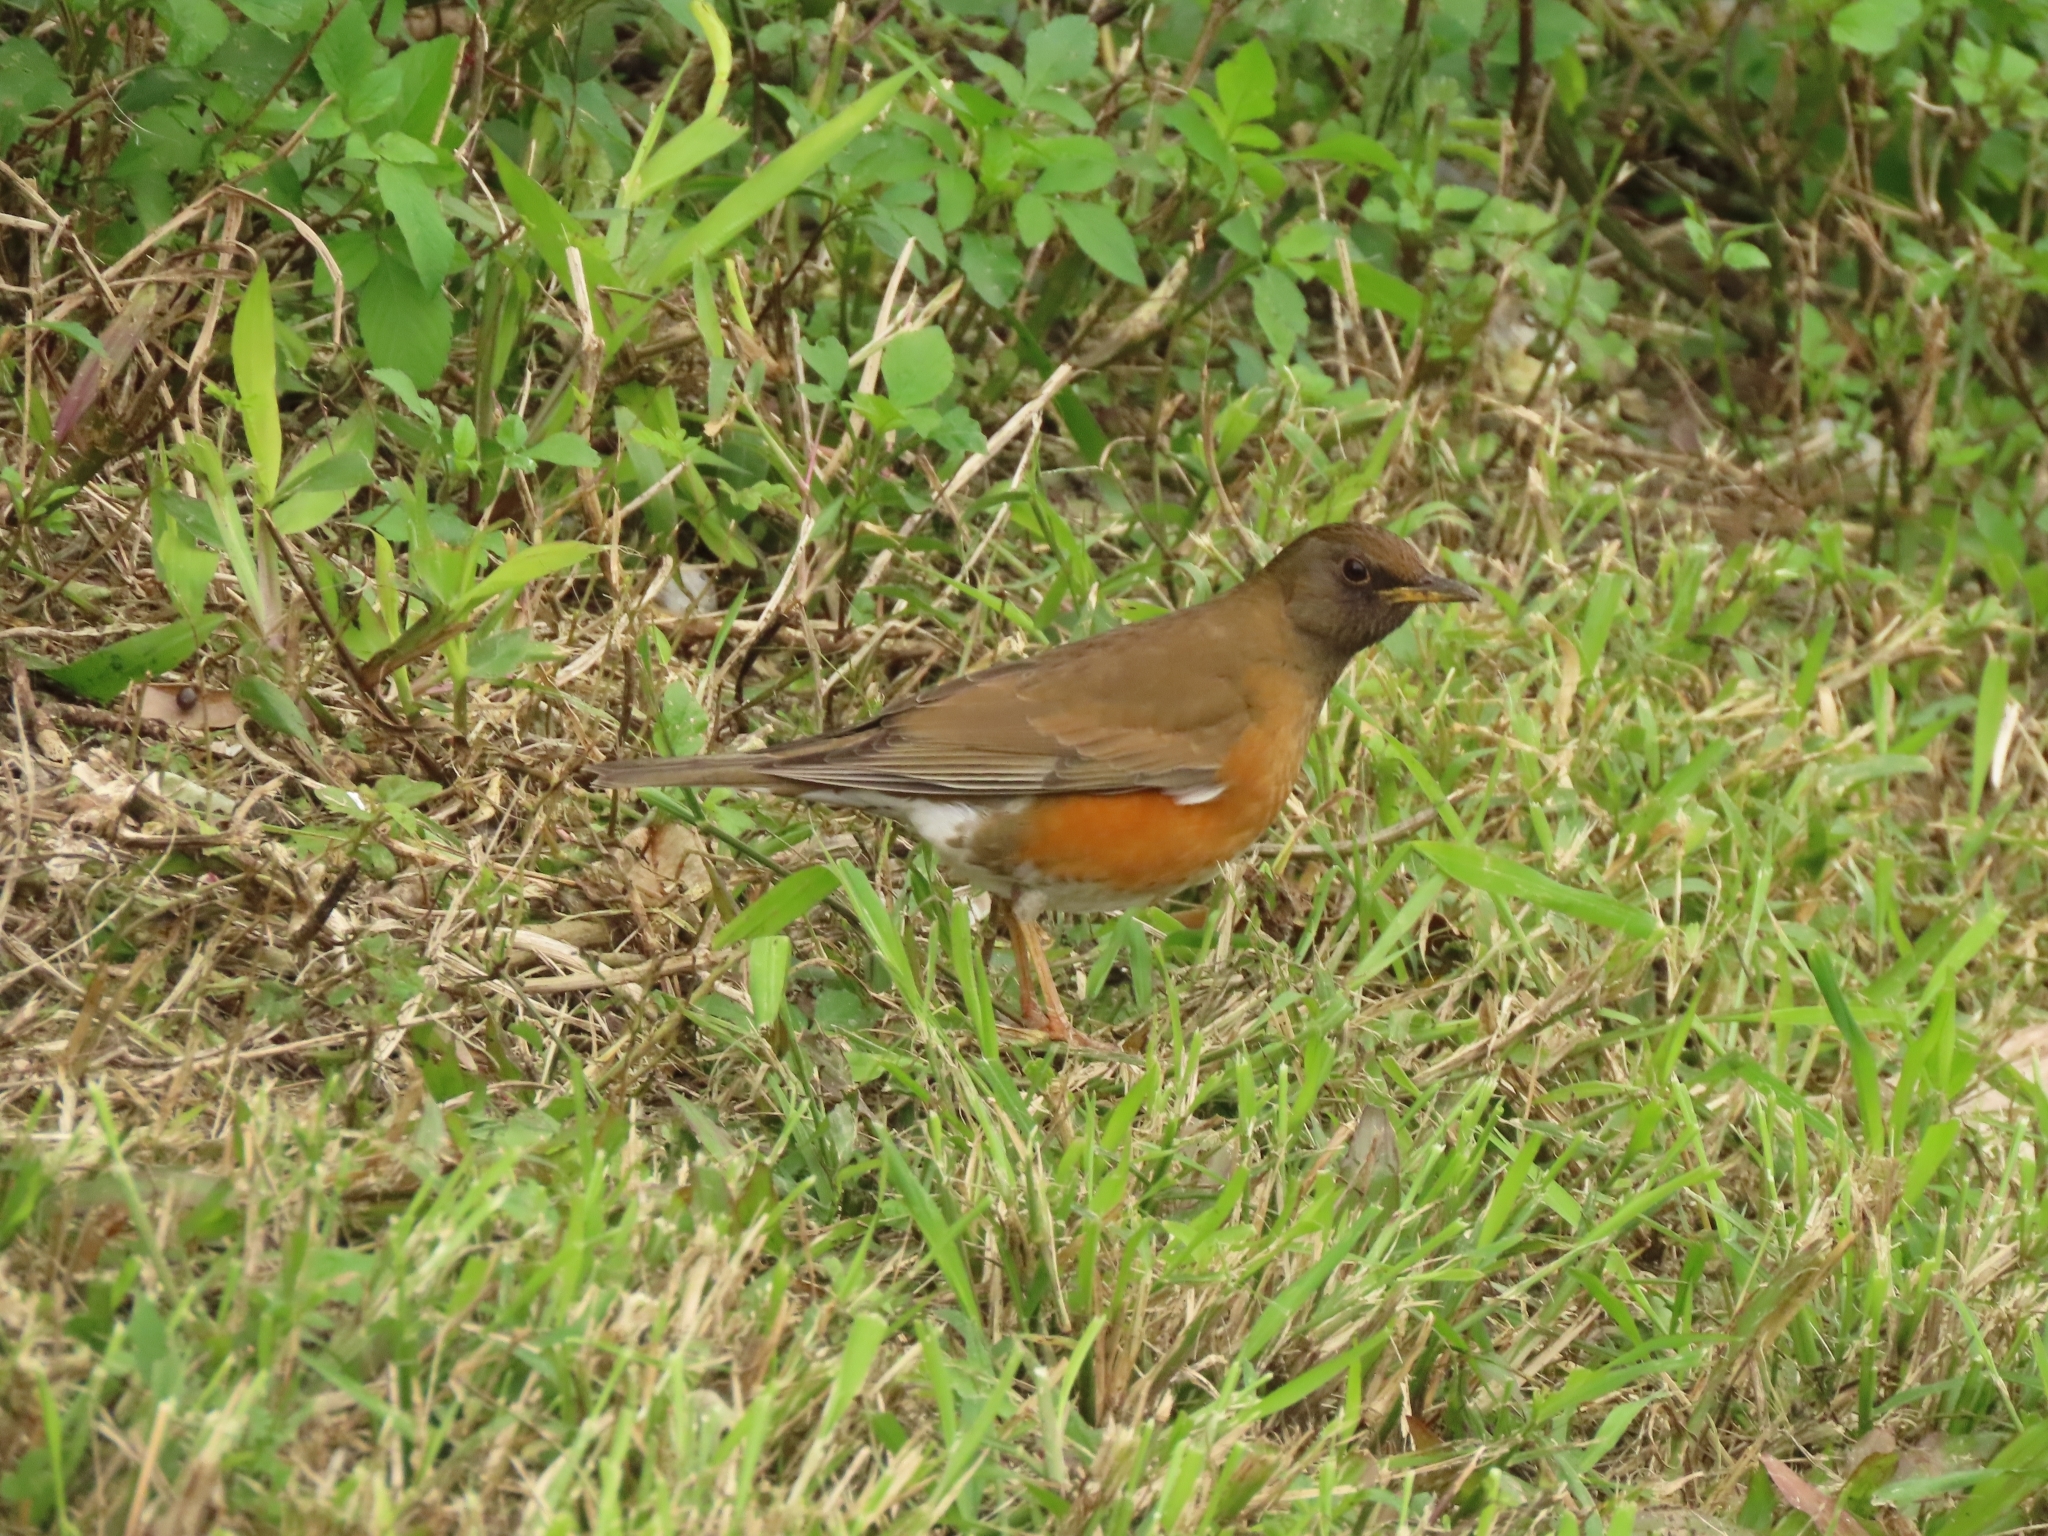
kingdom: Animalia
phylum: Chordata
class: Aves
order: Passeriformes
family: Turdidae
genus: Turdus
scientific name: Turdus chrysolaus
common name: Brown-headed thrush
